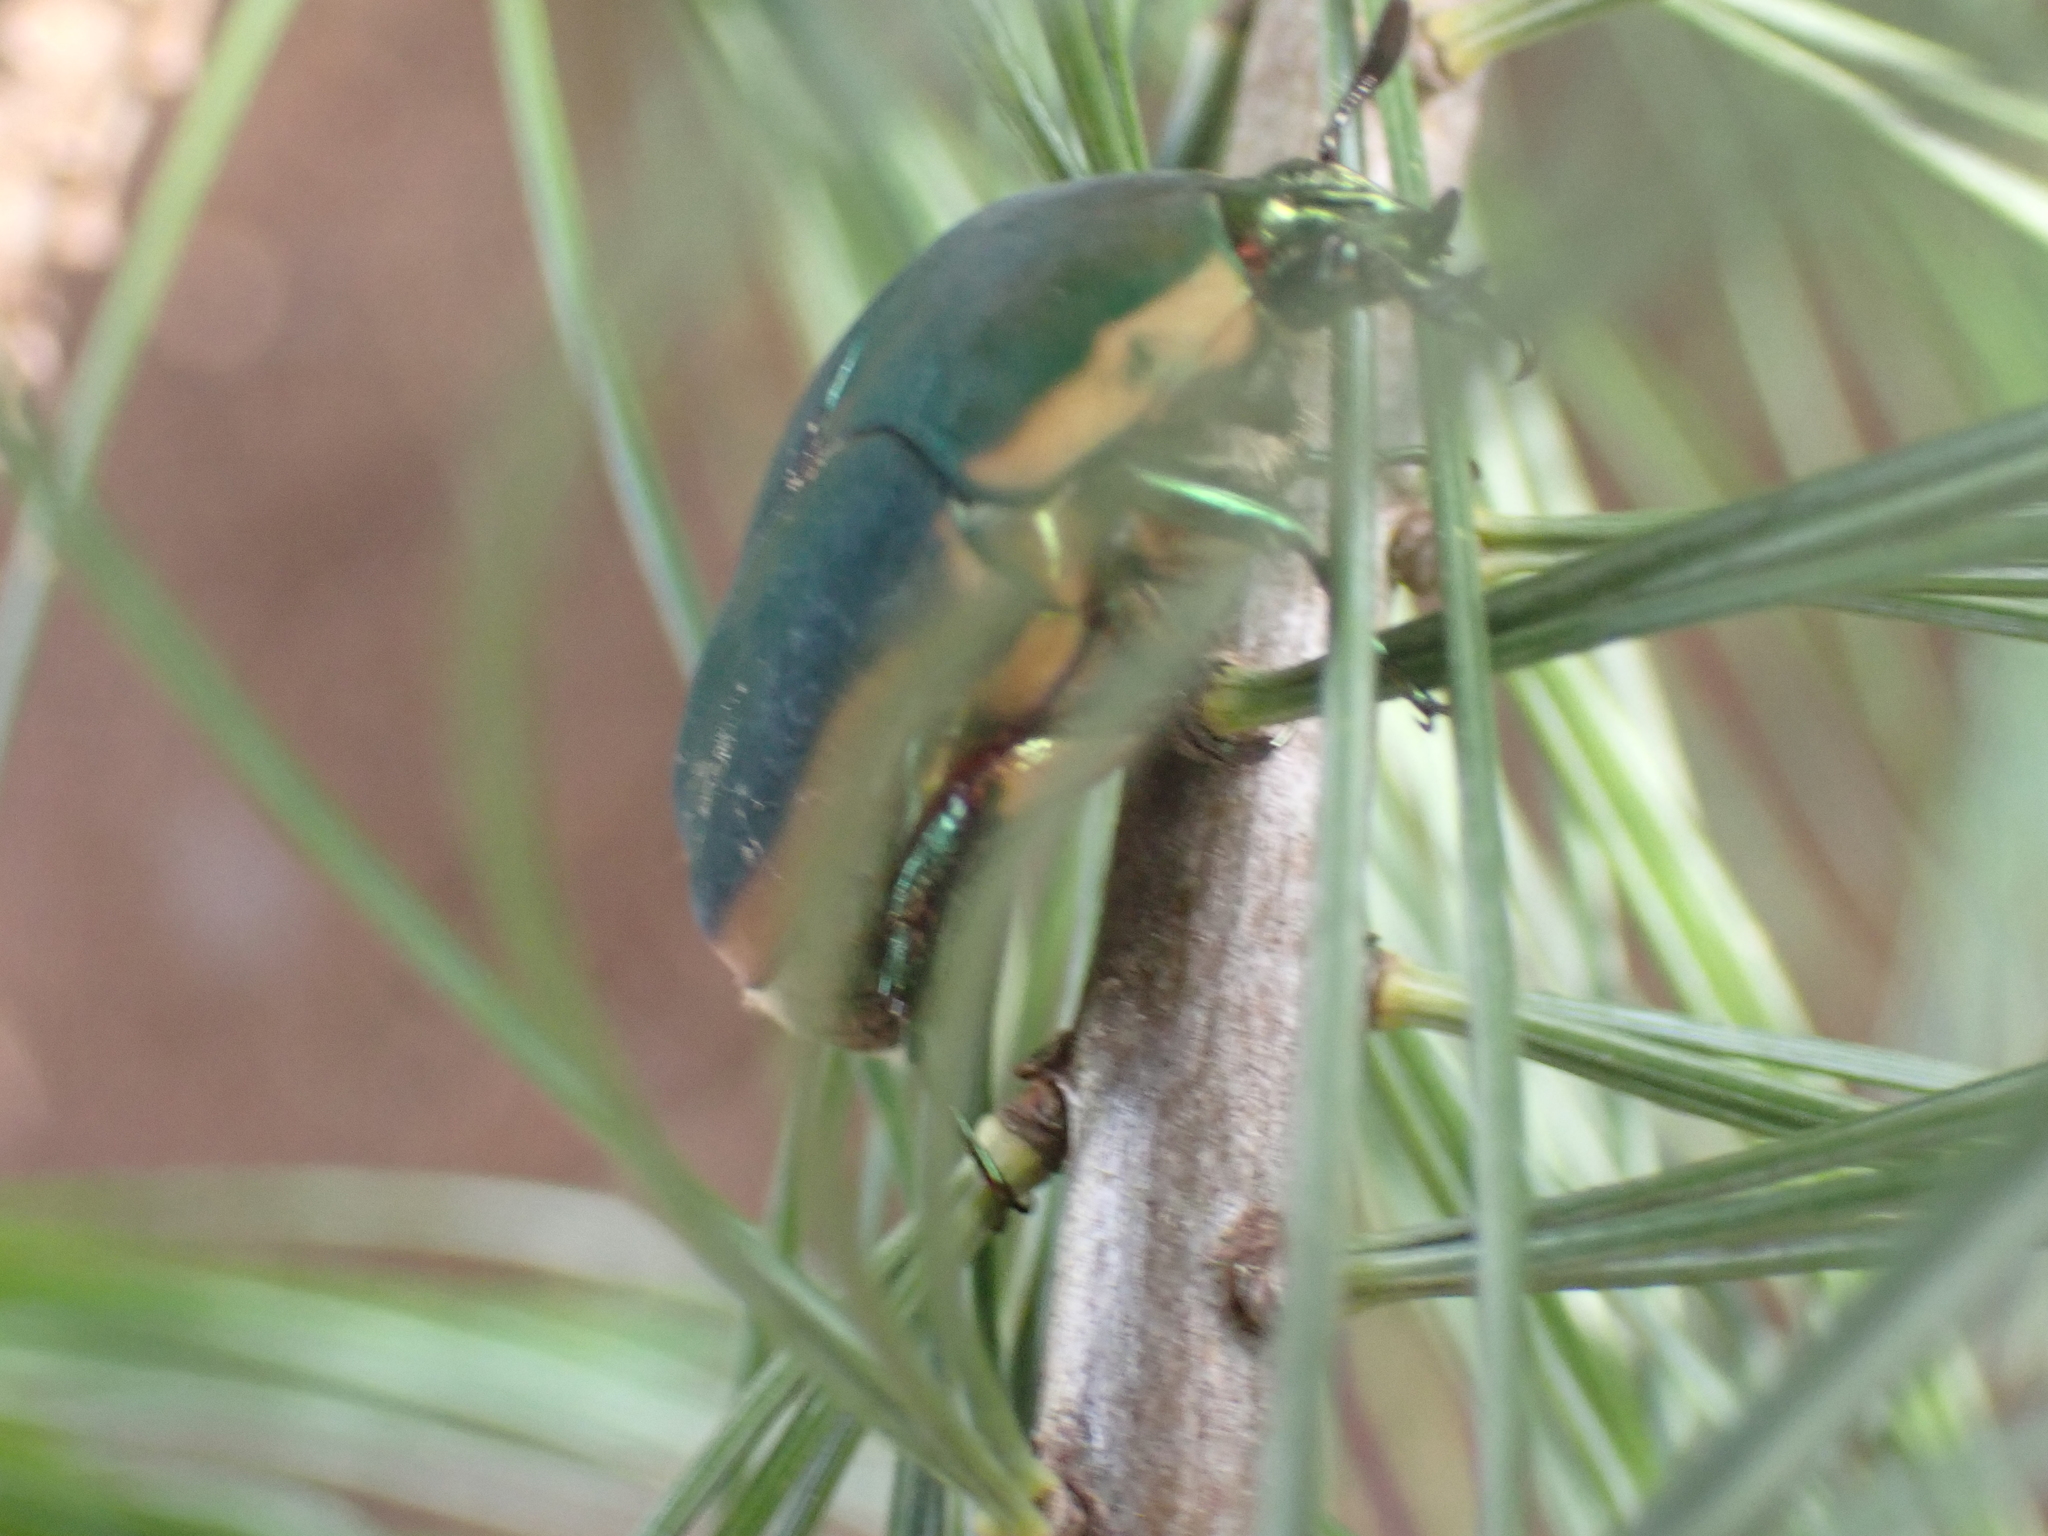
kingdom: Animalia
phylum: Arthropoda
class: Insecta
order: Coleoptera
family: Scarabaeidae
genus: Cotinis
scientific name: Cotinis nitida
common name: Common green june beetle
